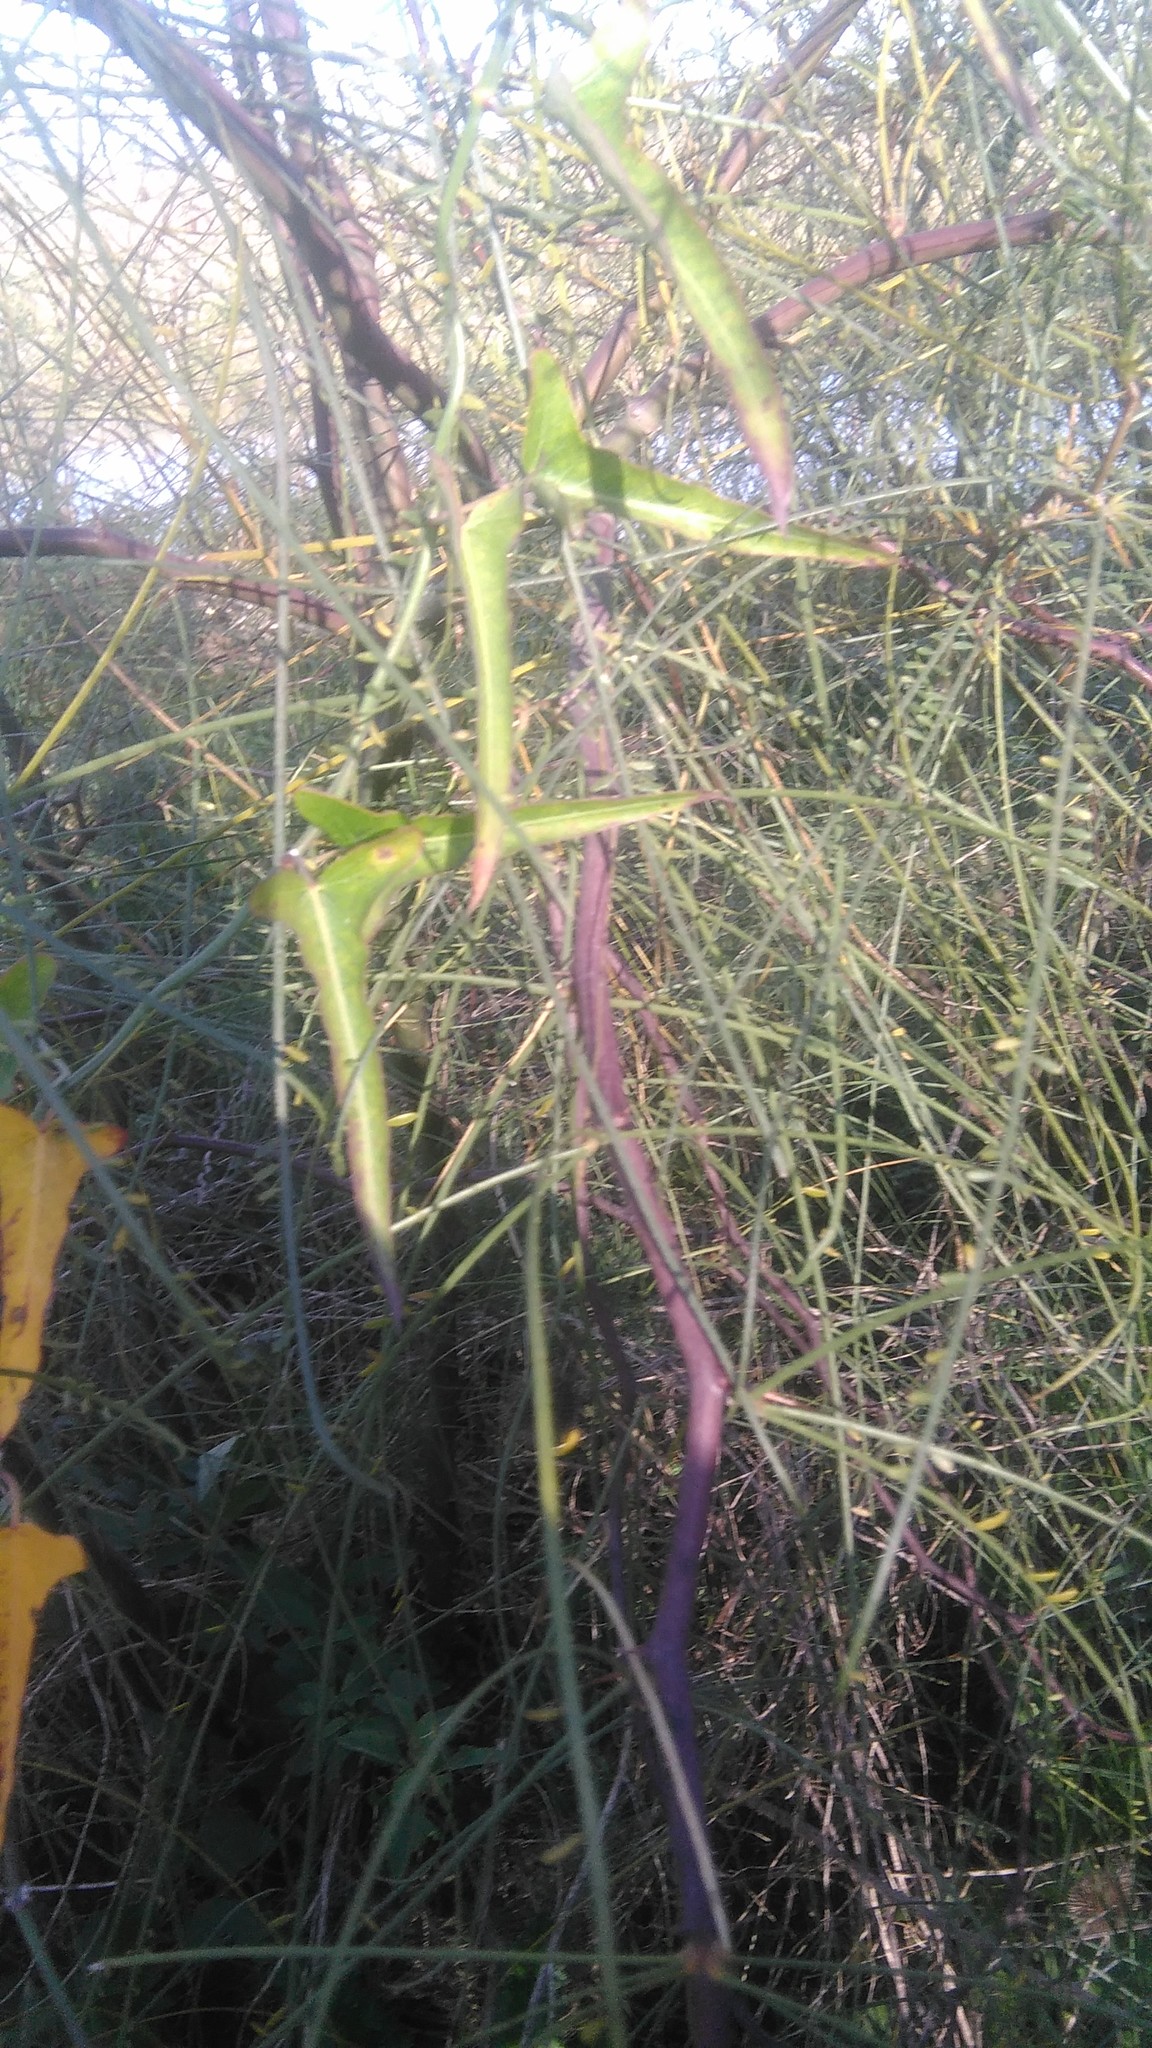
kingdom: Plantae
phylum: Tracheophyta
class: Magnoliopsida
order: Gentianales
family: Apocynaceae
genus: Araujia
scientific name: Araujia angustifolia
